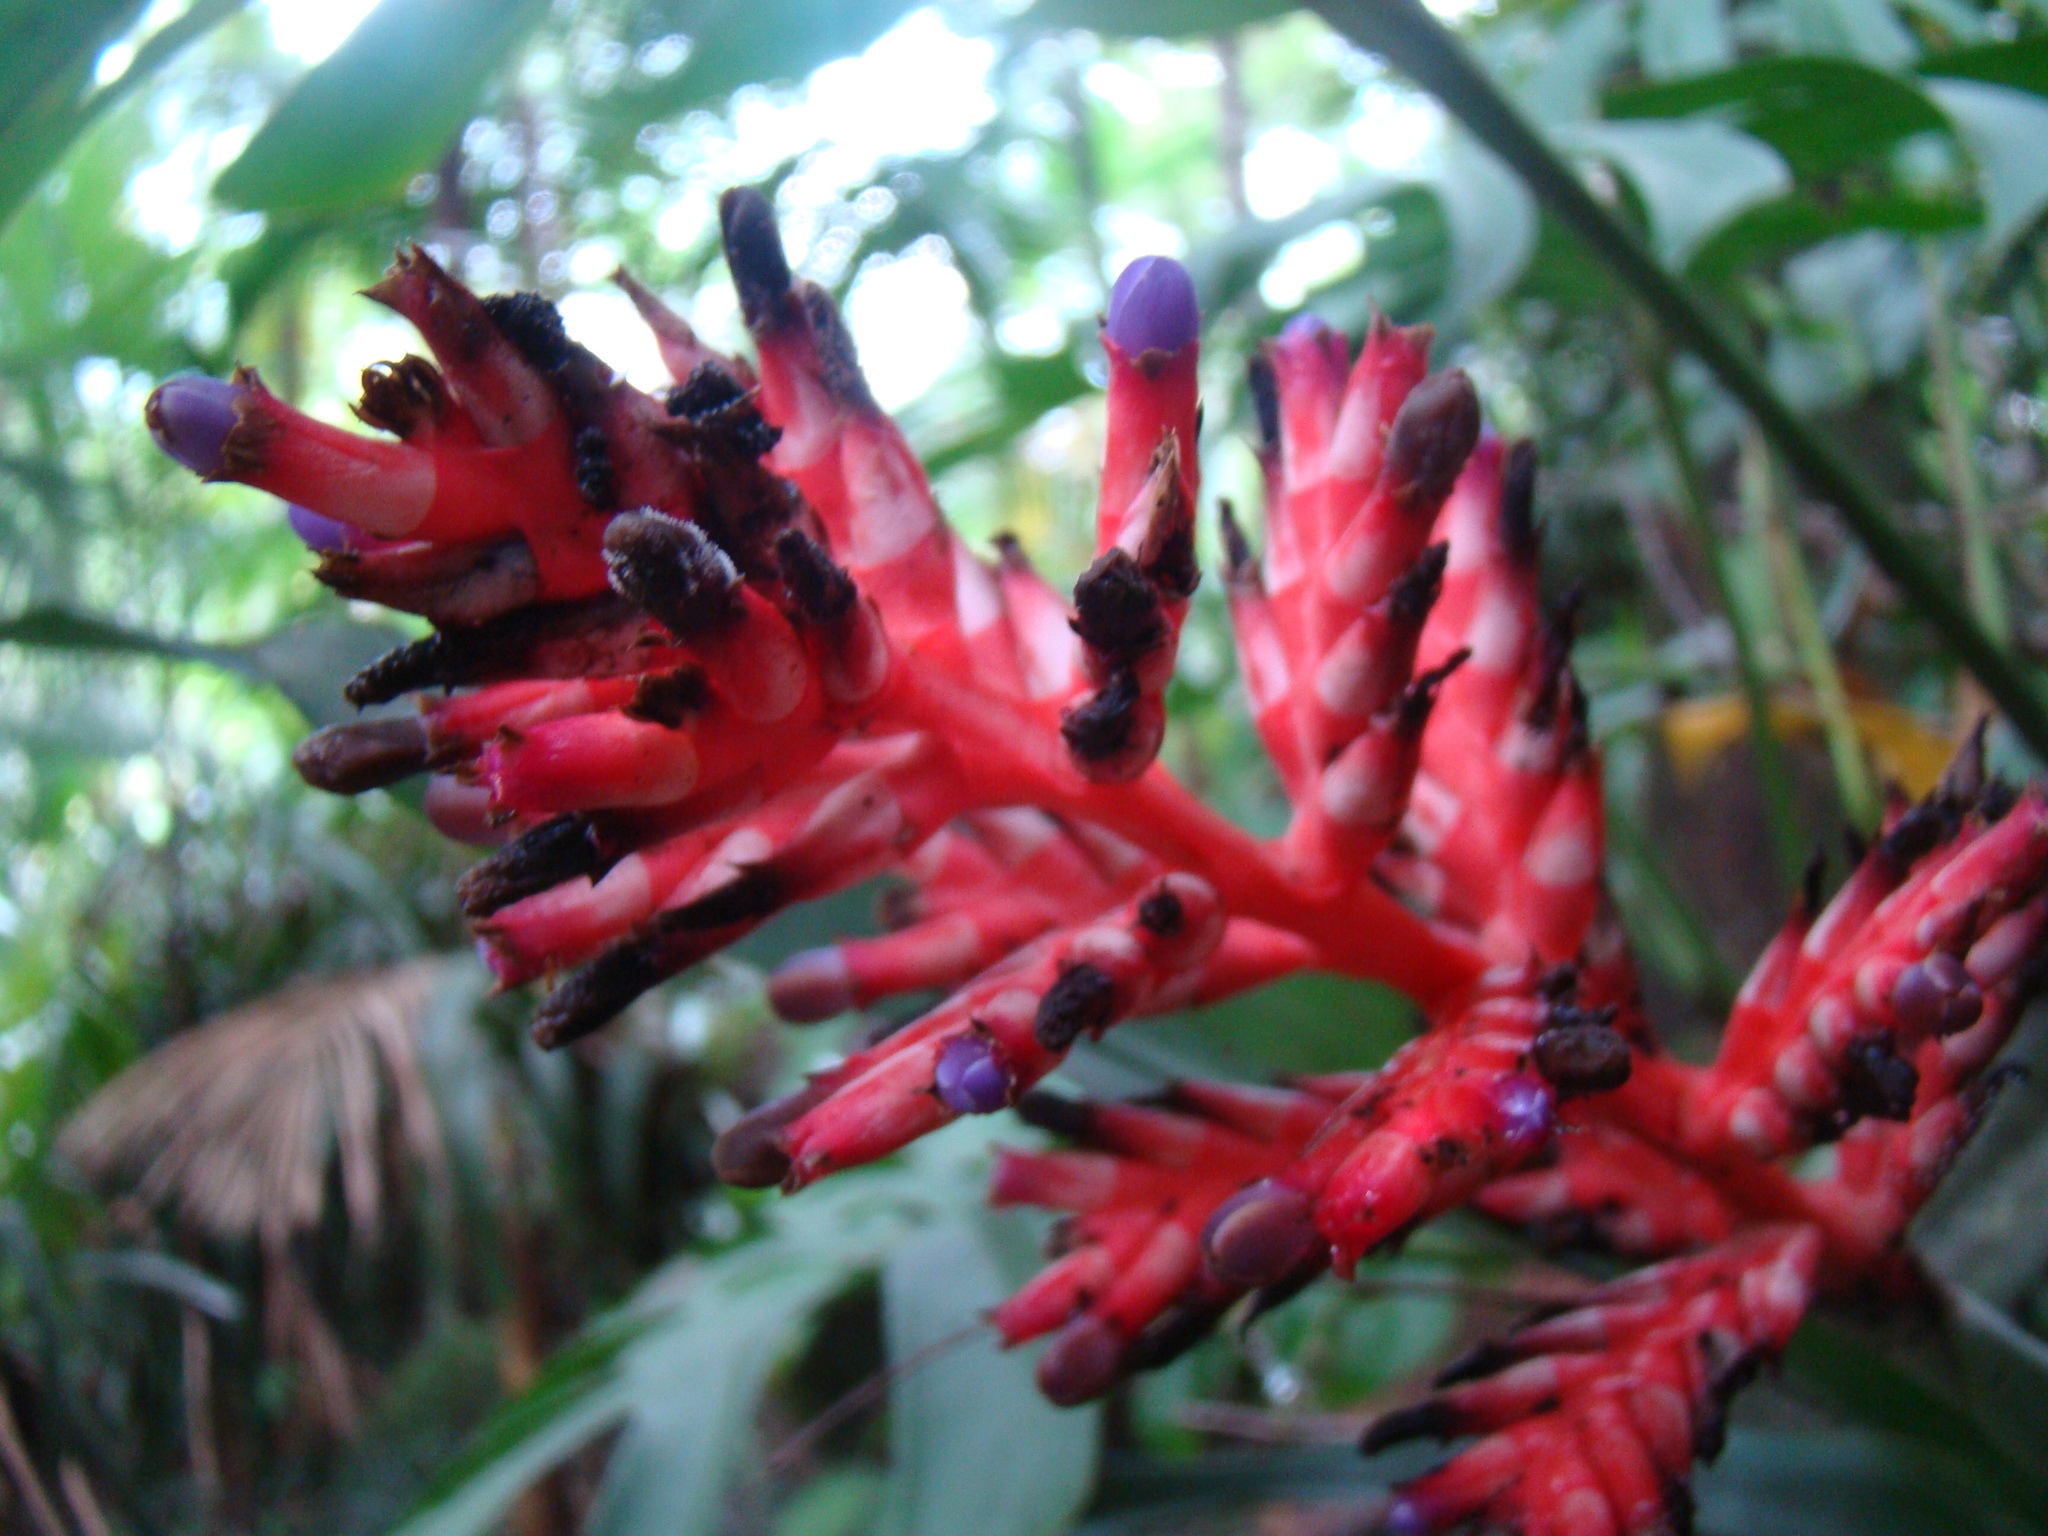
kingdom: Plantae
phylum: Tracheophyta
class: Liliopsida
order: Poales
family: Bromeliaceae
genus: Aechmea
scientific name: Aechmea distichantha
